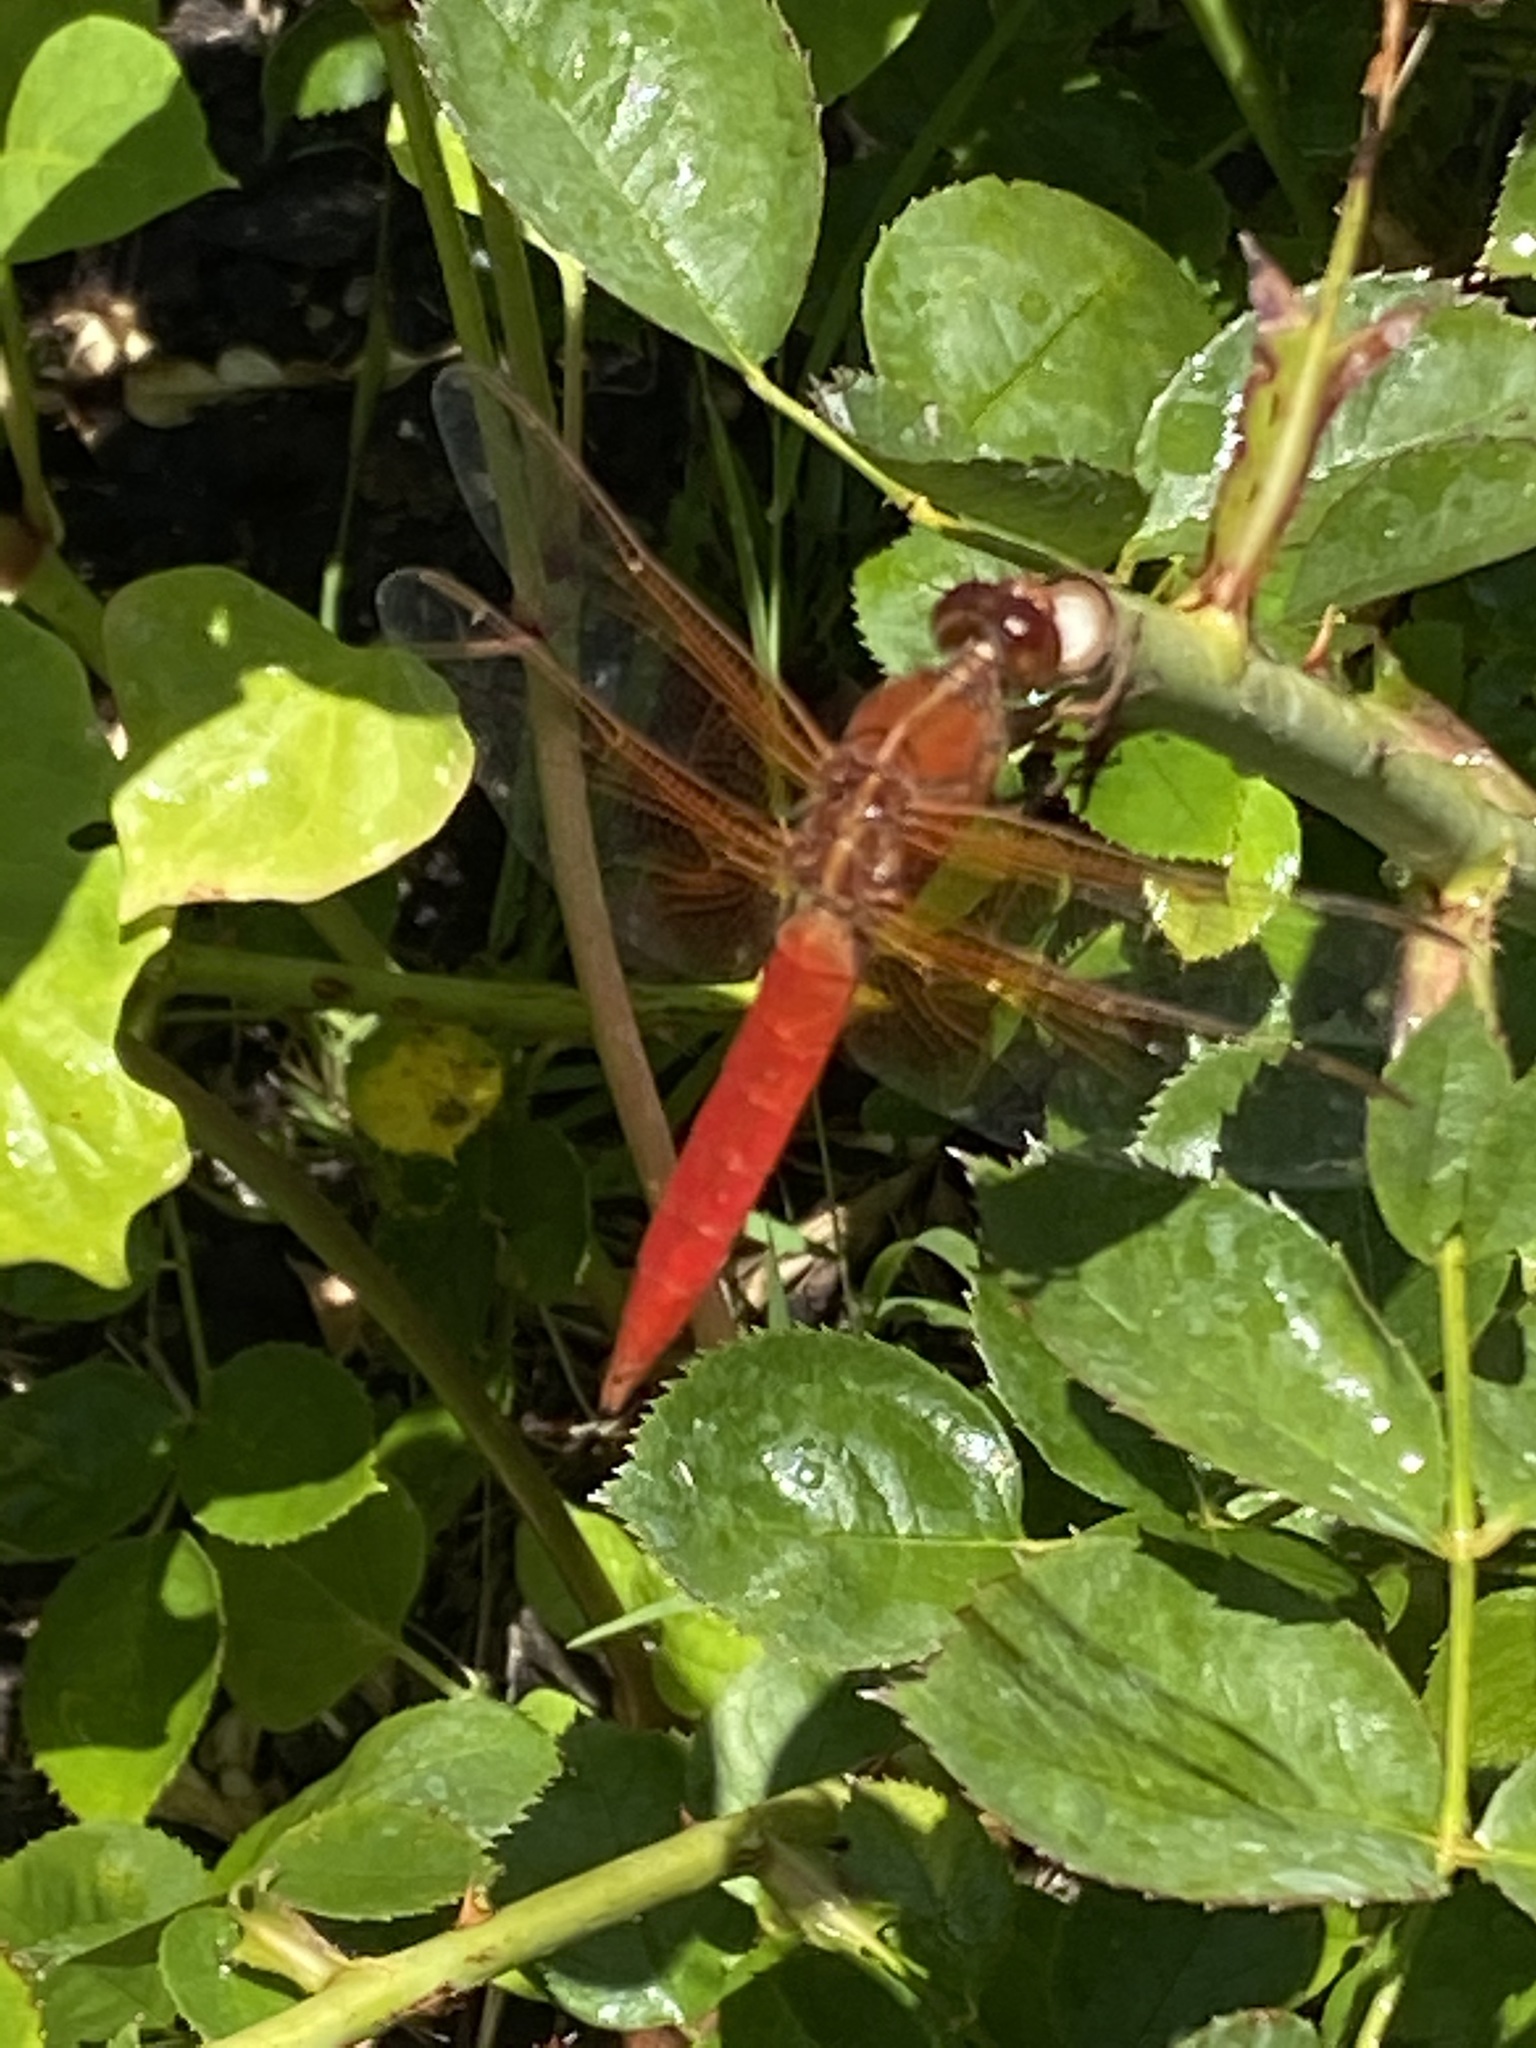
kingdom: Animalia
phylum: Arthropoda
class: Insecta
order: Odonata
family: Libellulidae
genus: Libellula
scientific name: Libellula croceipennis
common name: Neon skimmer
